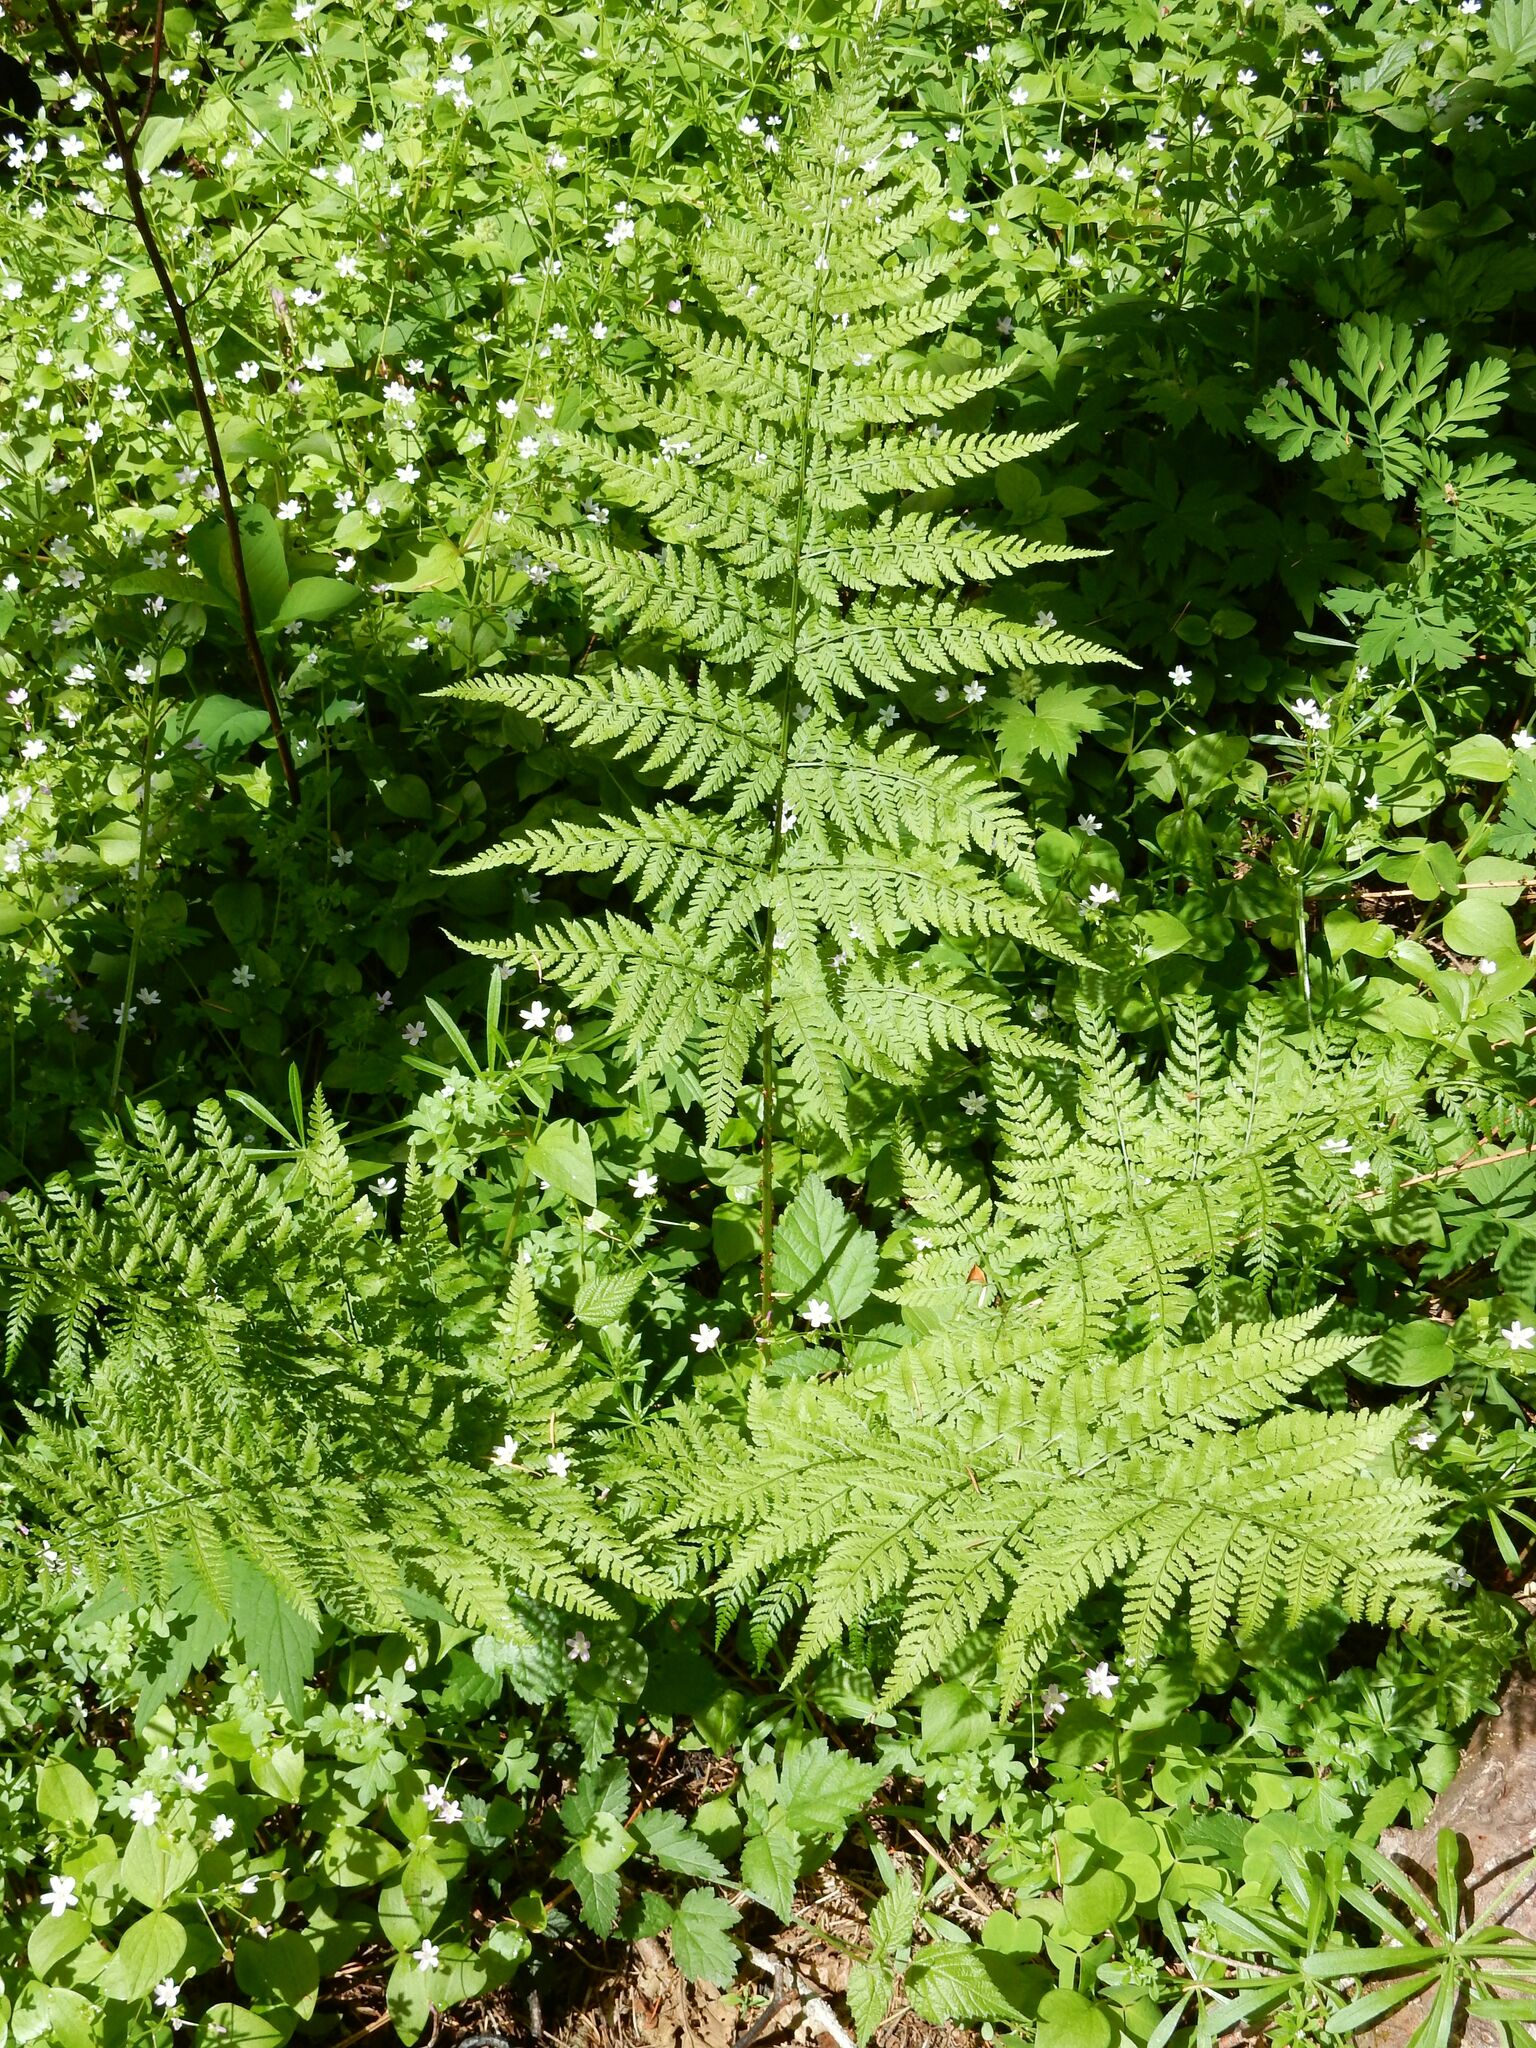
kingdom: Plantae
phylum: Tracheophyta
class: Polypodiopsida
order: Polypodiales
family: Dryopteridaceae
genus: Dryopteris
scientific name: Dryopteris expansa
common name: Northern buckler fern
